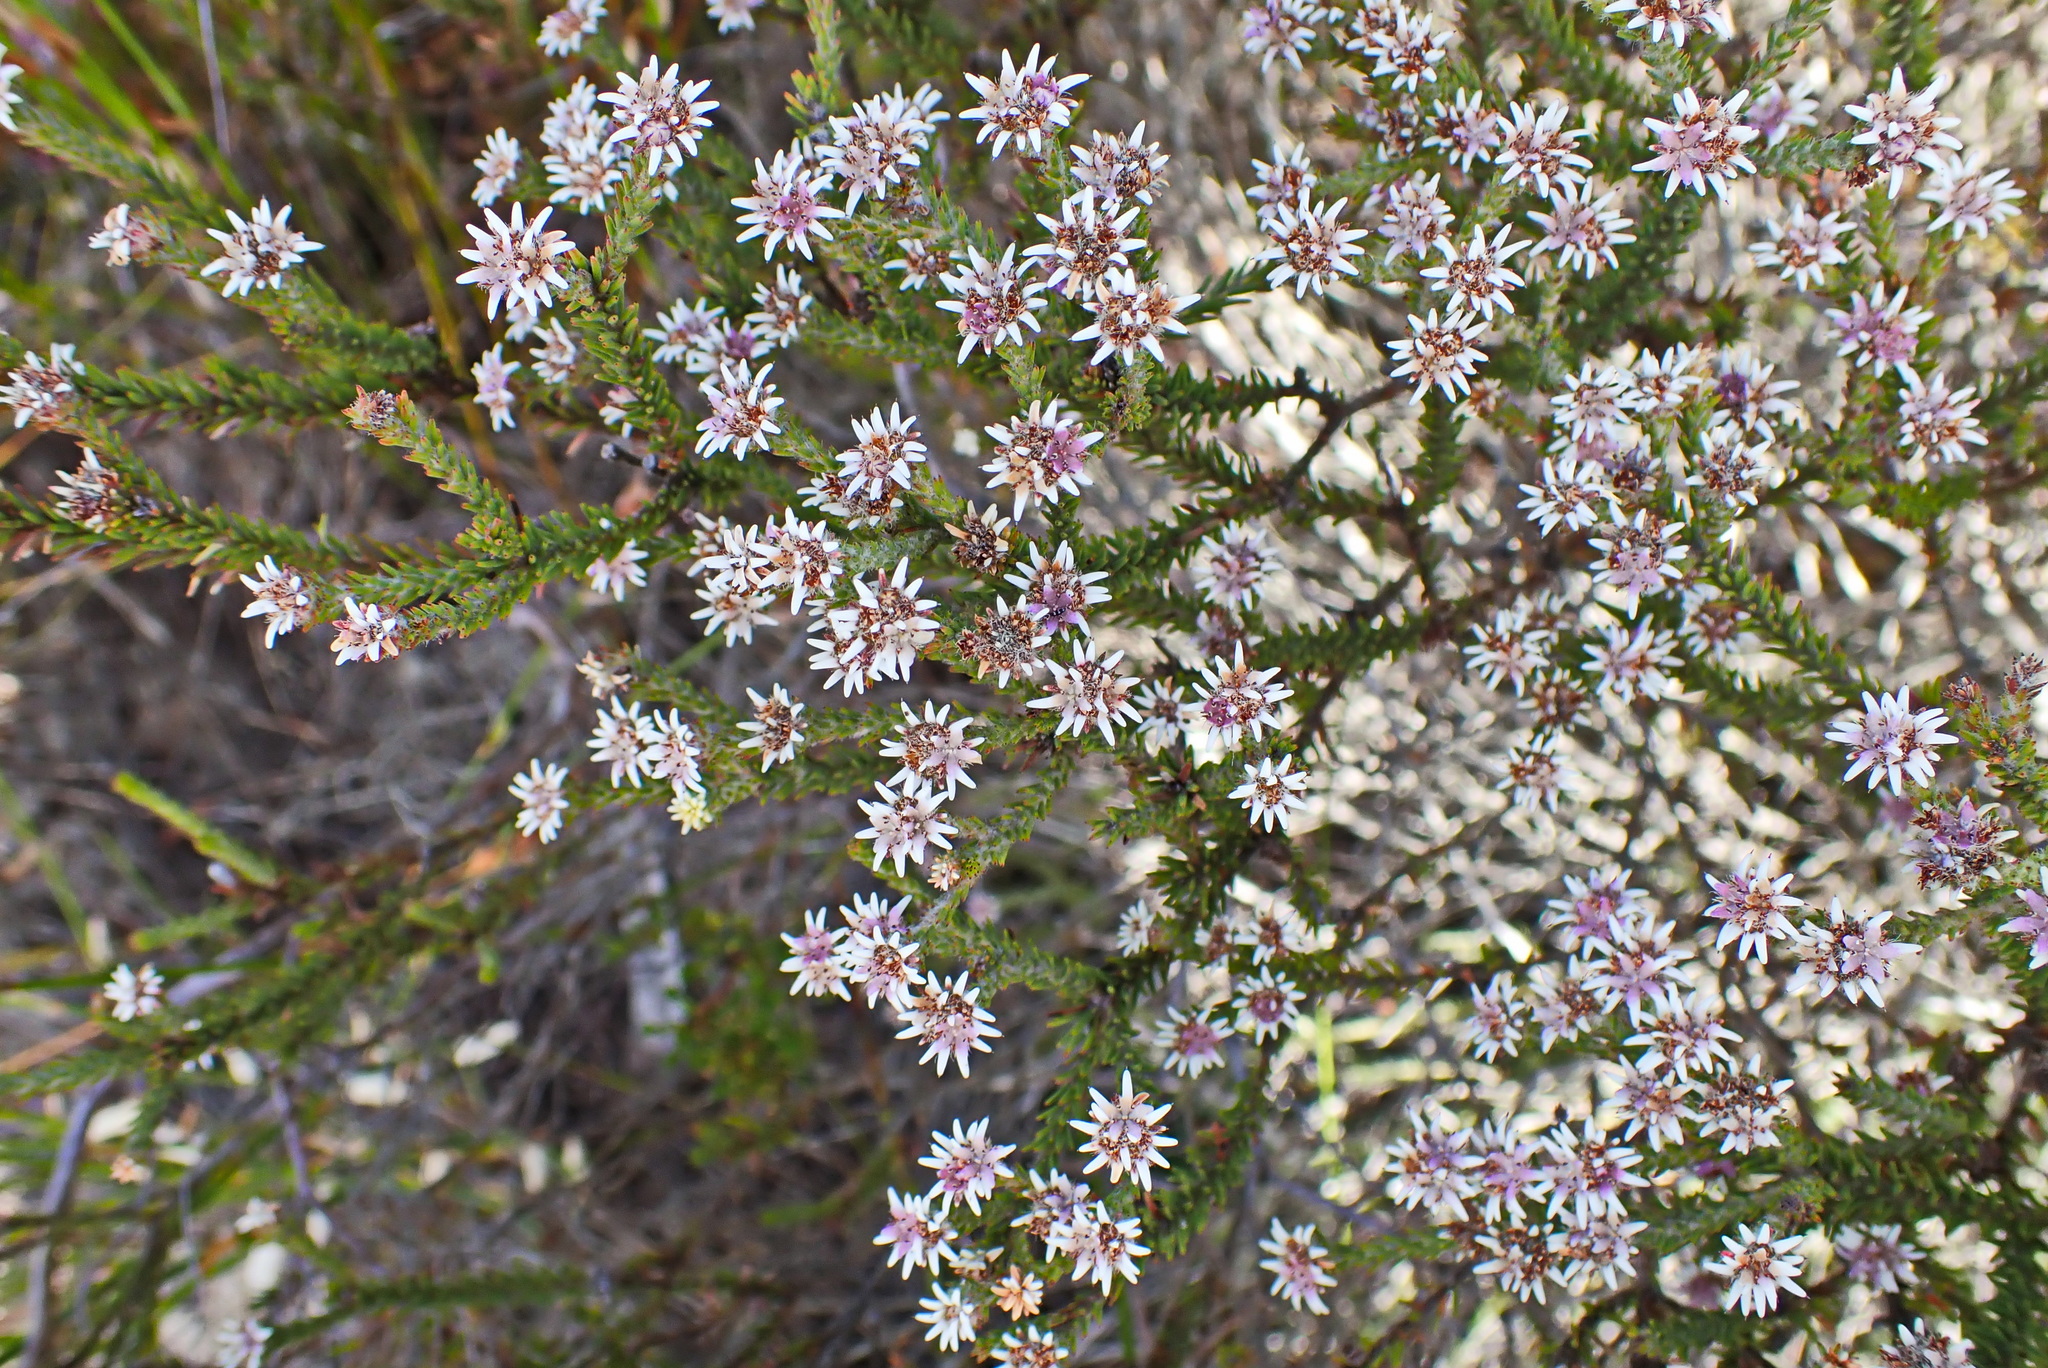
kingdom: Plantae
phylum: Tracheophyta
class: Magnoliopsida
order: Bruniales
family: Bruniaceae
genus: Staavia
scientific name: Staavia radiata
